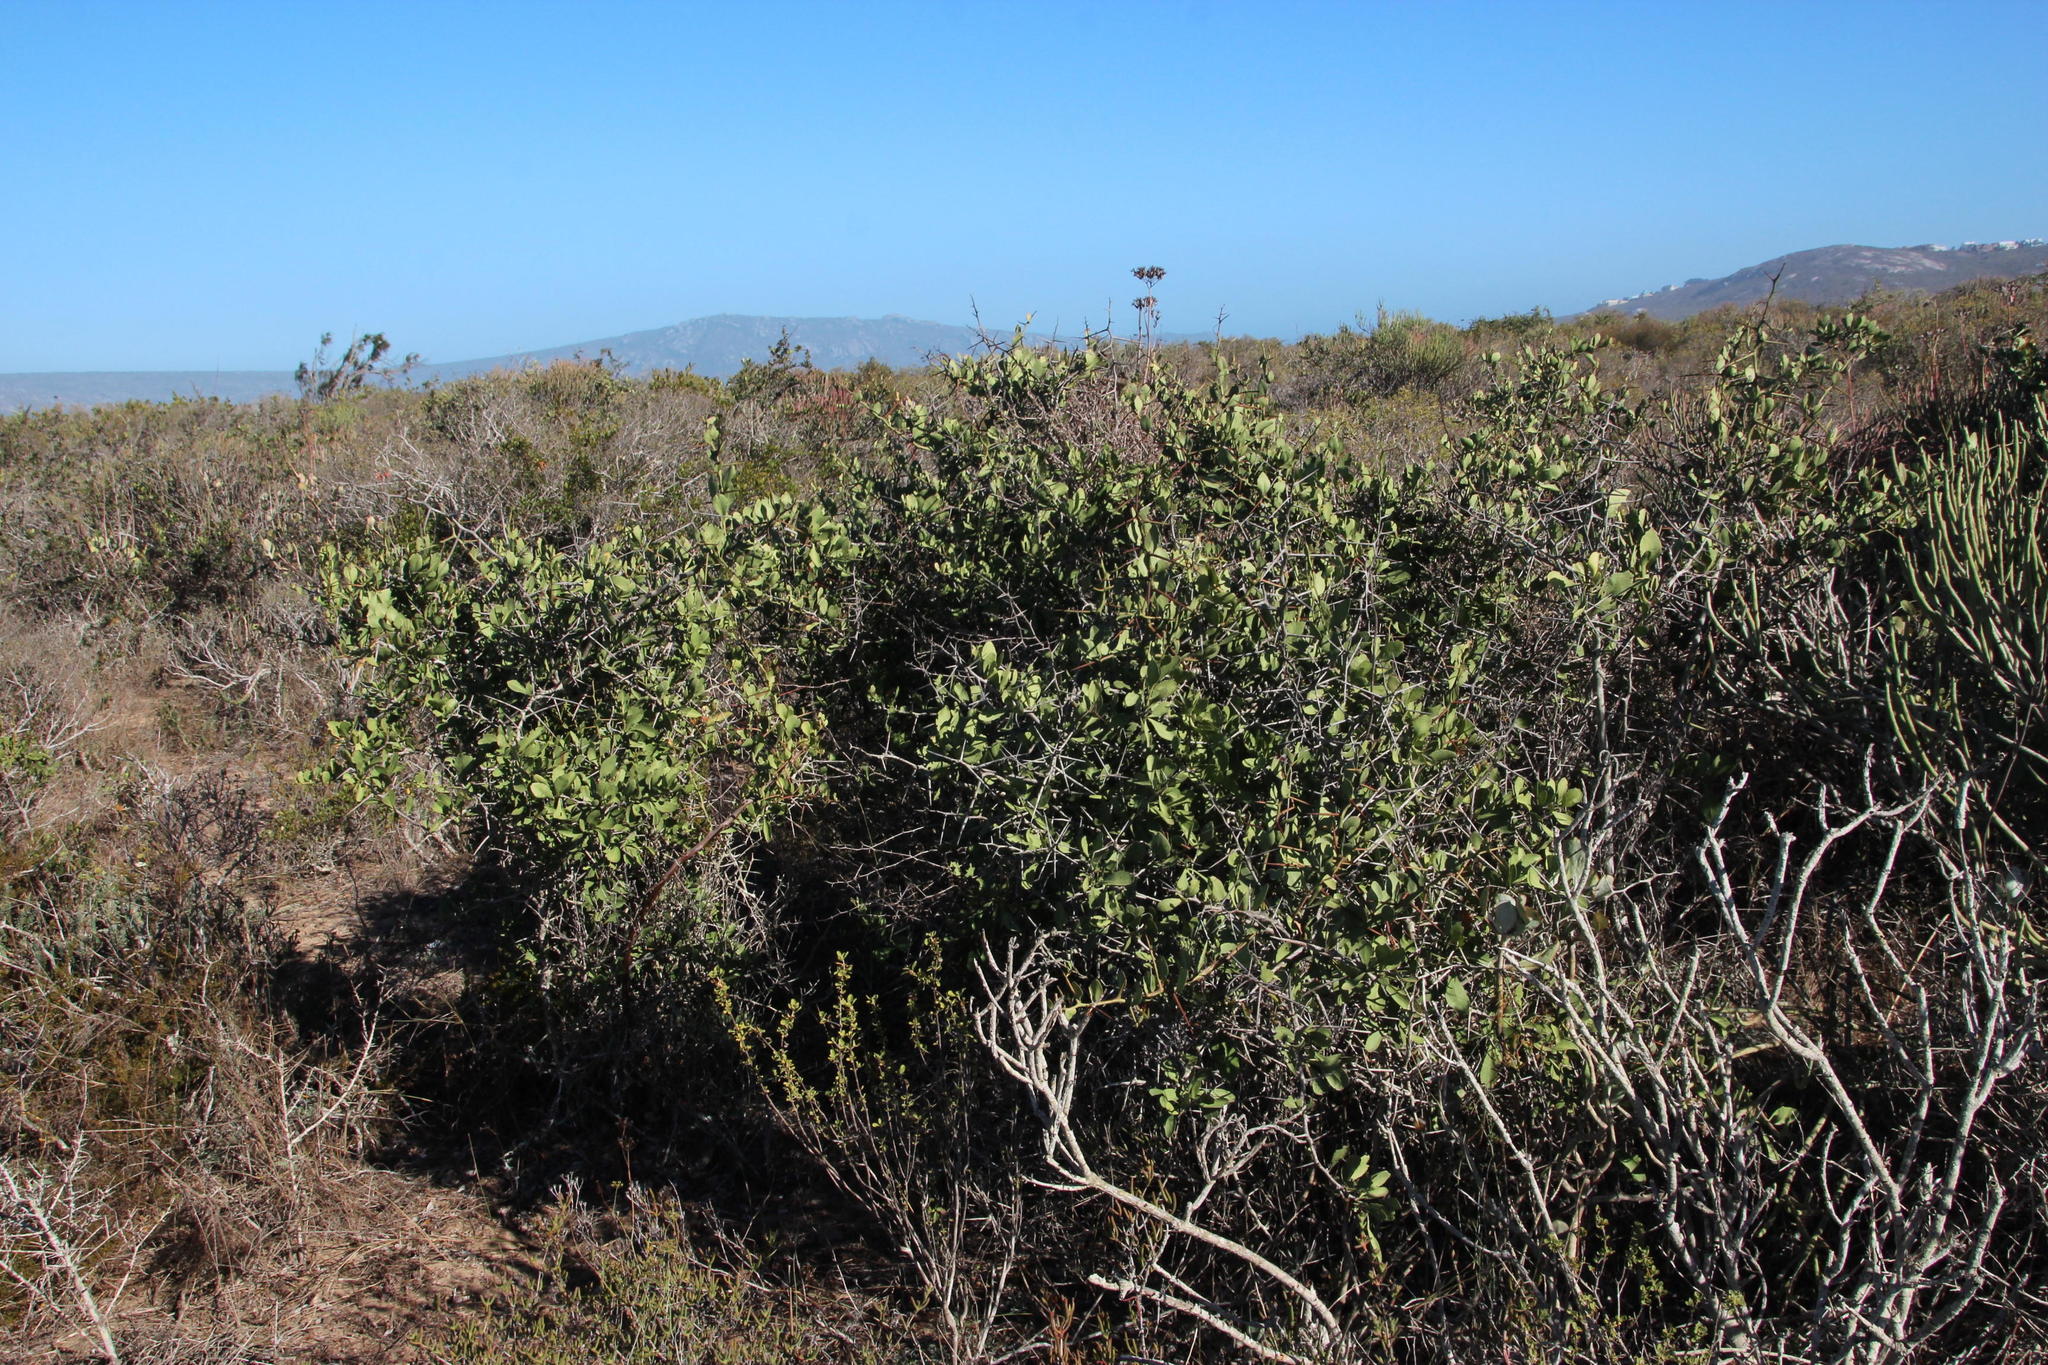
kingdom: Plantae
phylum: Tracheophyta
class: Magnoliopsida
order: Celastrales
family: Celastraceae
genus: Putterlickia
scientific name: Putterlickia pyracantha
